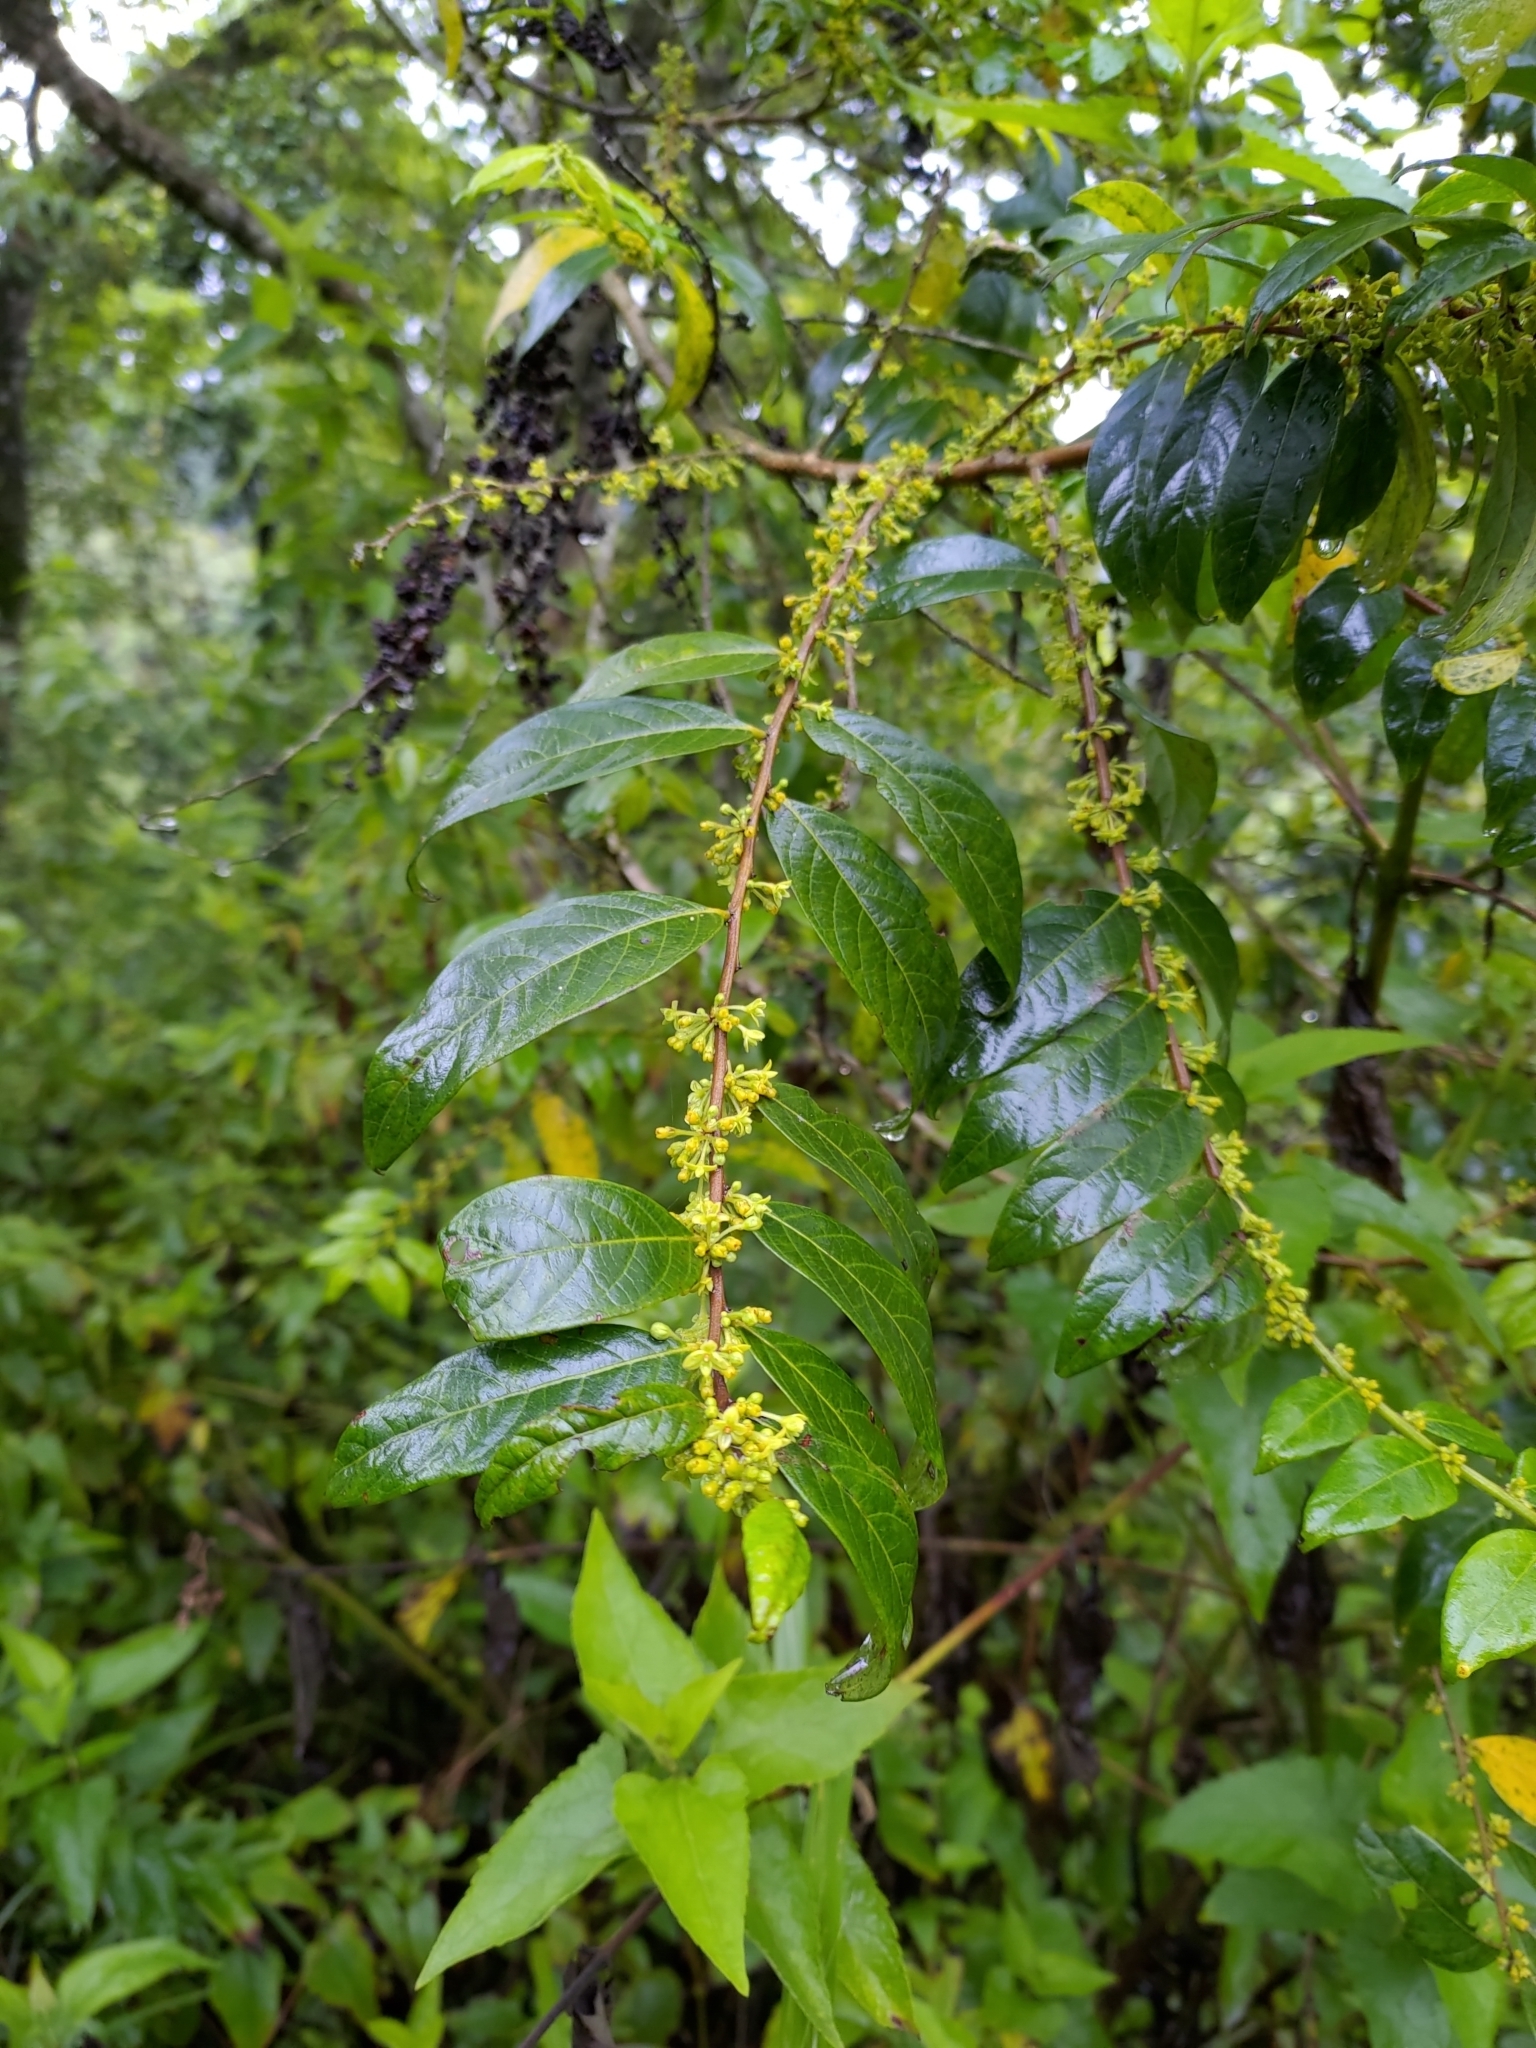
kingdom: Plantae
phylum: Tracheophyta
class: Magnoliopsida
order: Malpighiales
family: Phyllanthaceae
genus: Glochidion
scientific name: Glochidion acuminatum
